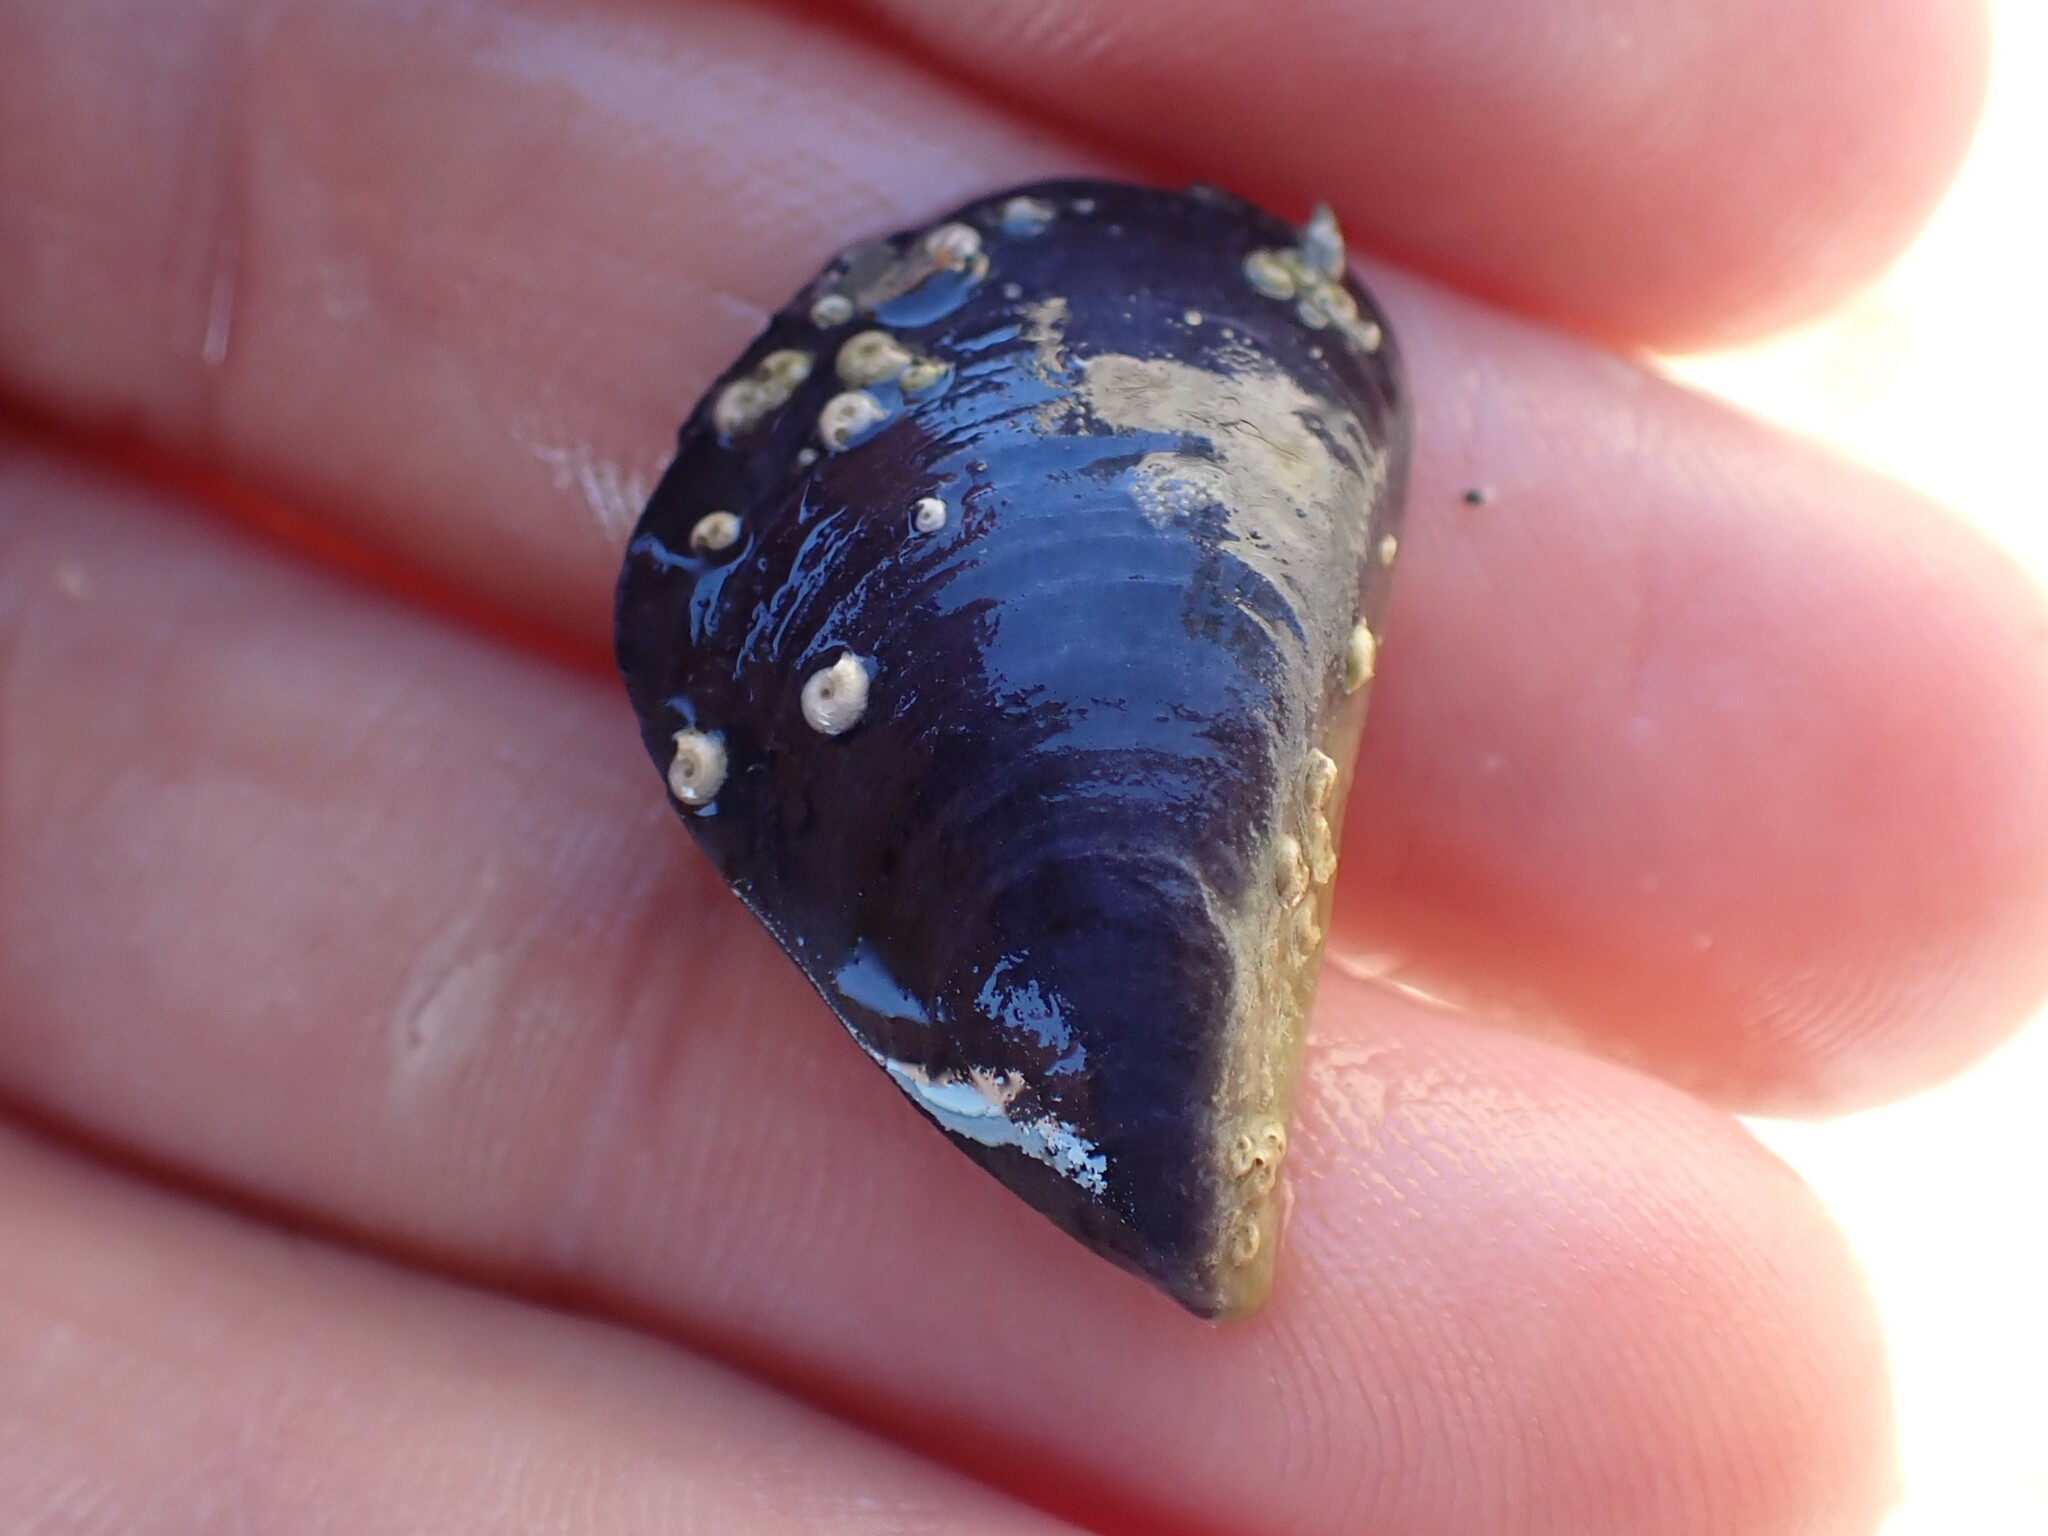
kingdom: Animalia
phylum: Mollusca
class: Bivalvia
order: Mytilida
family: Mytilidae
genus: Mytilus
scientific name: Mytilus planulatus
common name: Australian mussel
